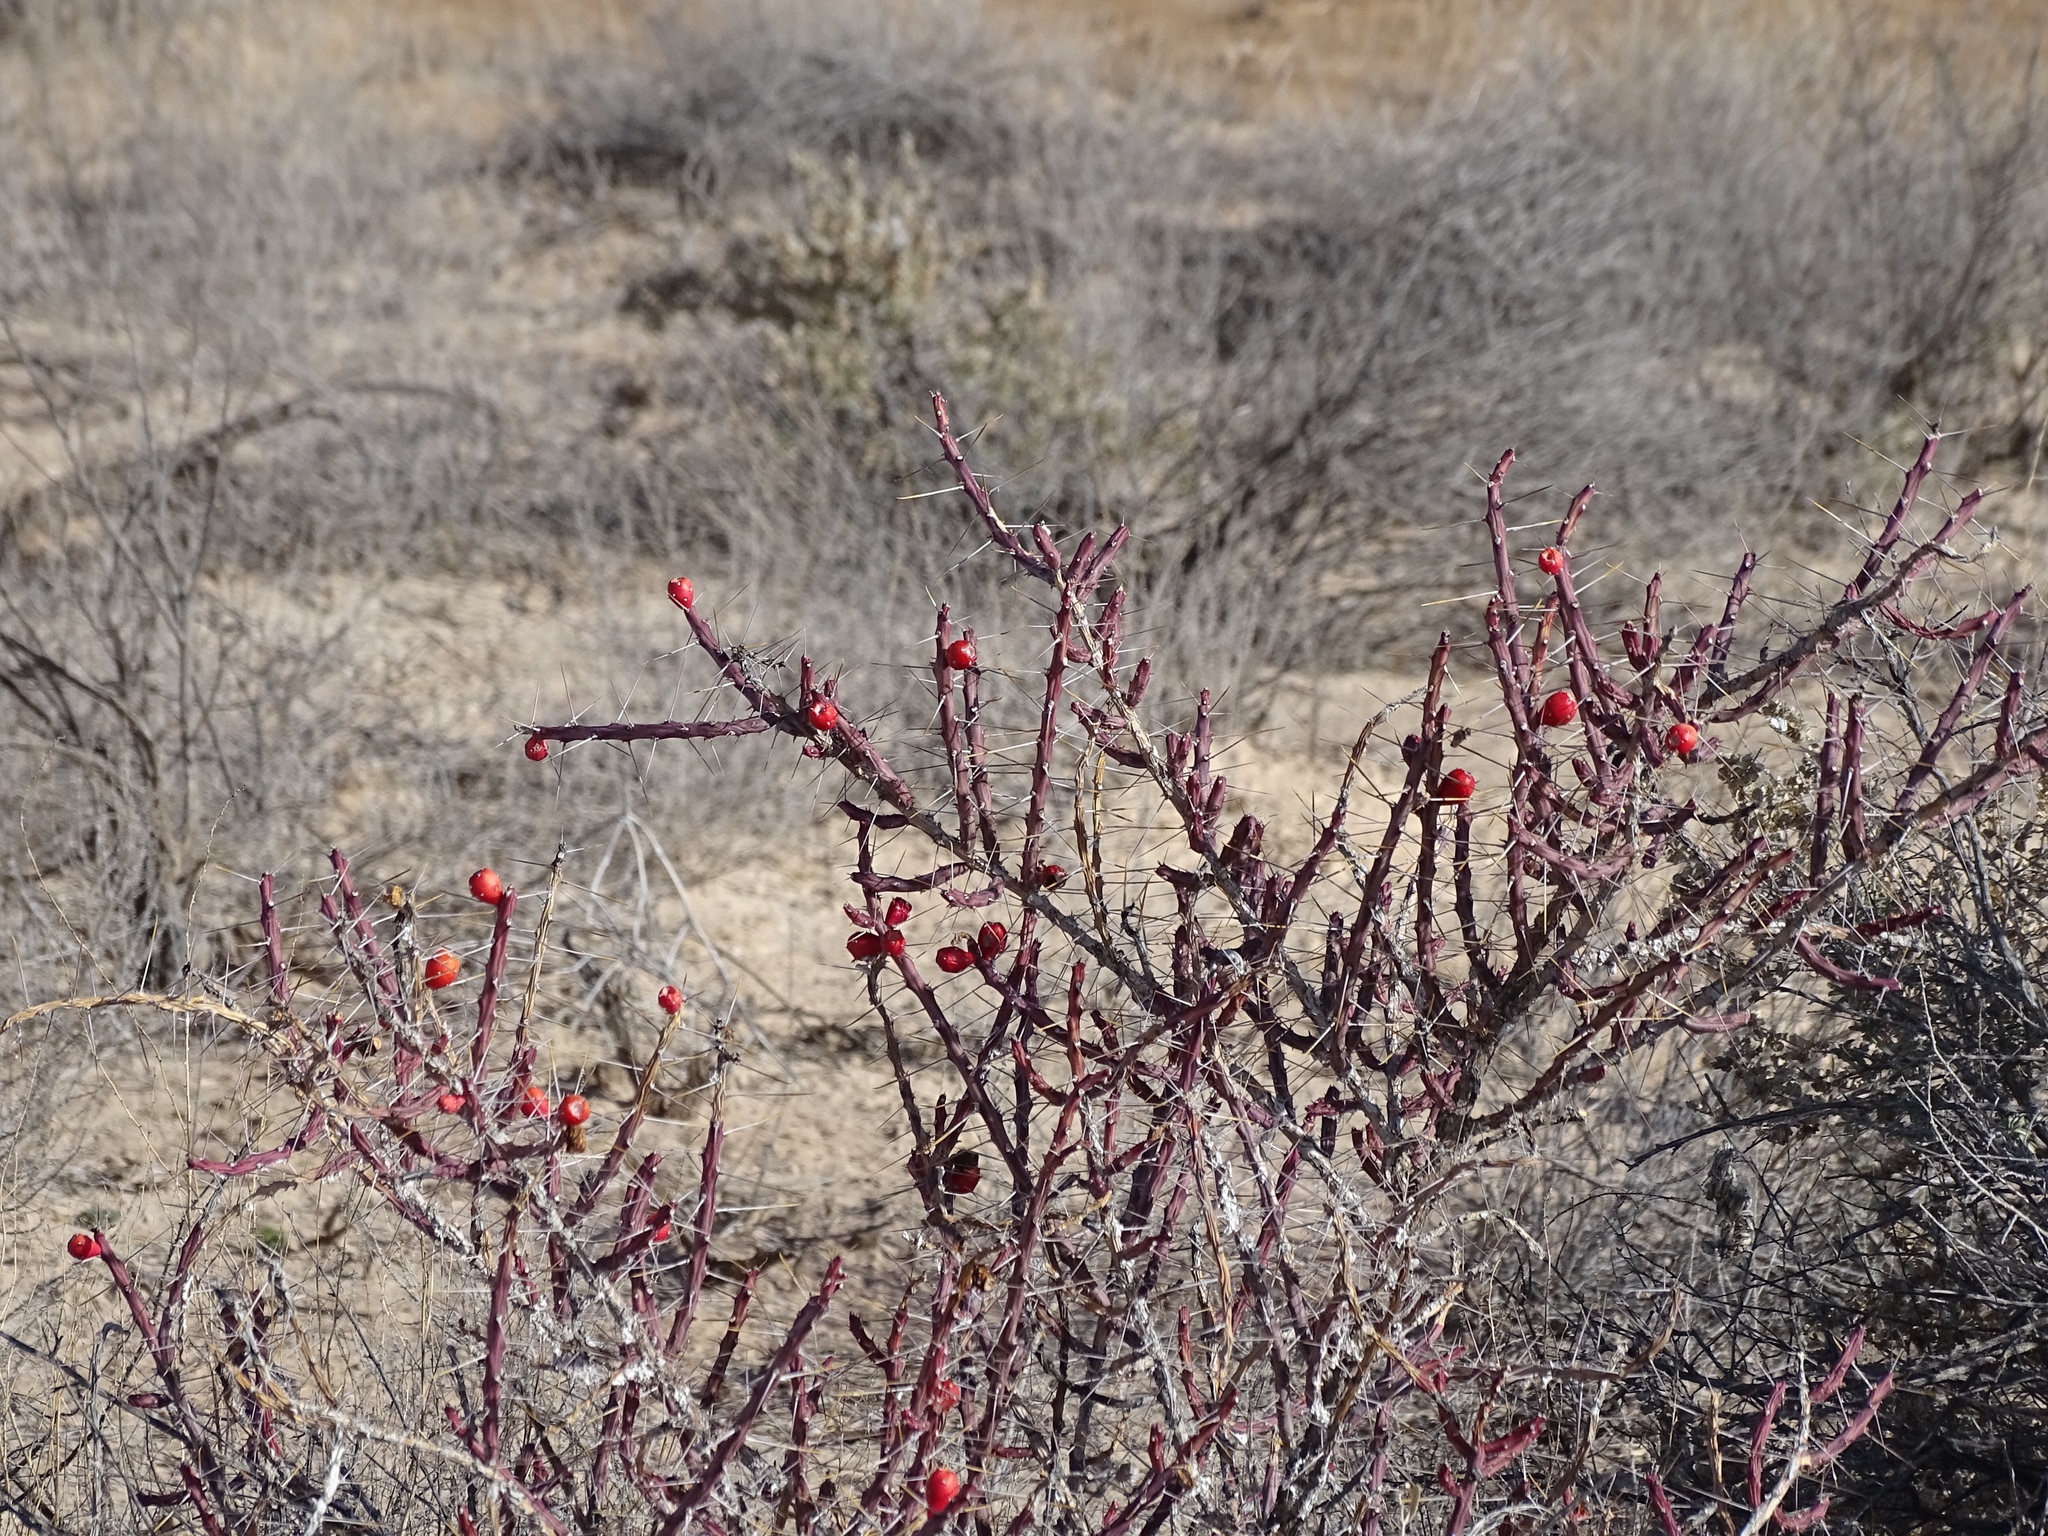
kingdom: Plantae
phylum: Tracheophyta
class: Magnoliopsida
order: Caryophyllales
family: Cactaceae
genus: Cylindropuntia
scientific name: Cylindropuntia leptocaulis
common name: Christmas cactus
